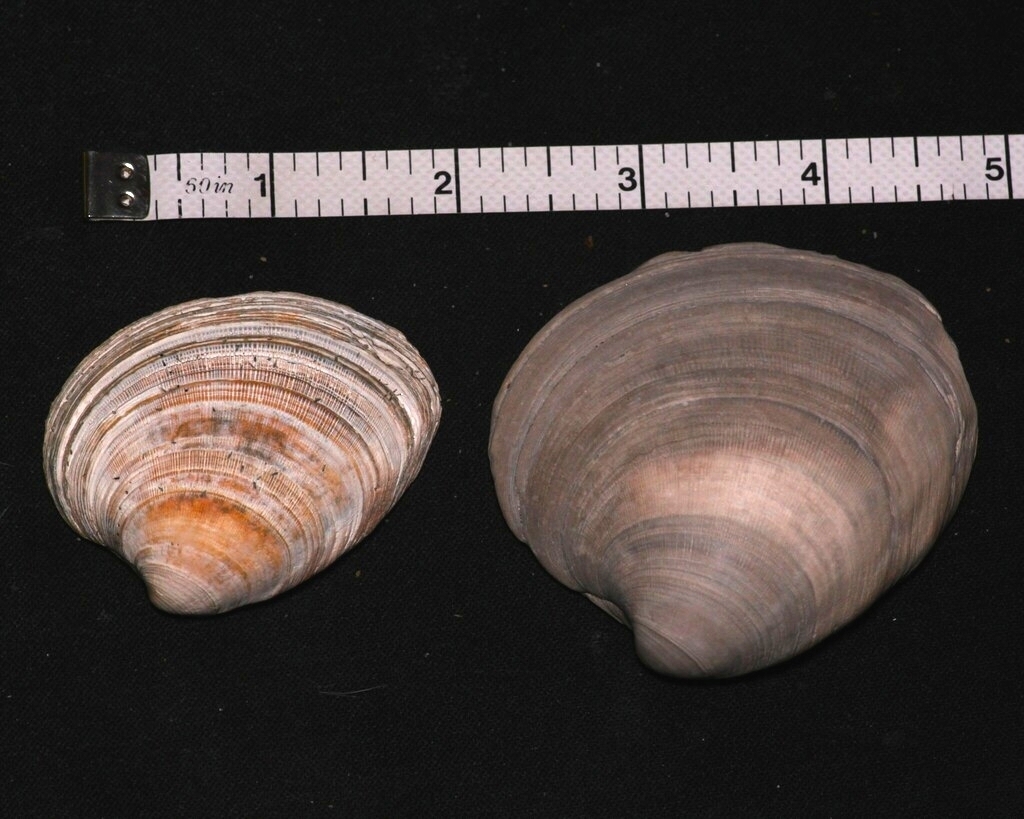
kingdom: Animalia
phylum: Mollusca
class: Bivalvia
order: Venerida
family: Veneridae
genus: Mercenaria
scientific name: Mercenaria
